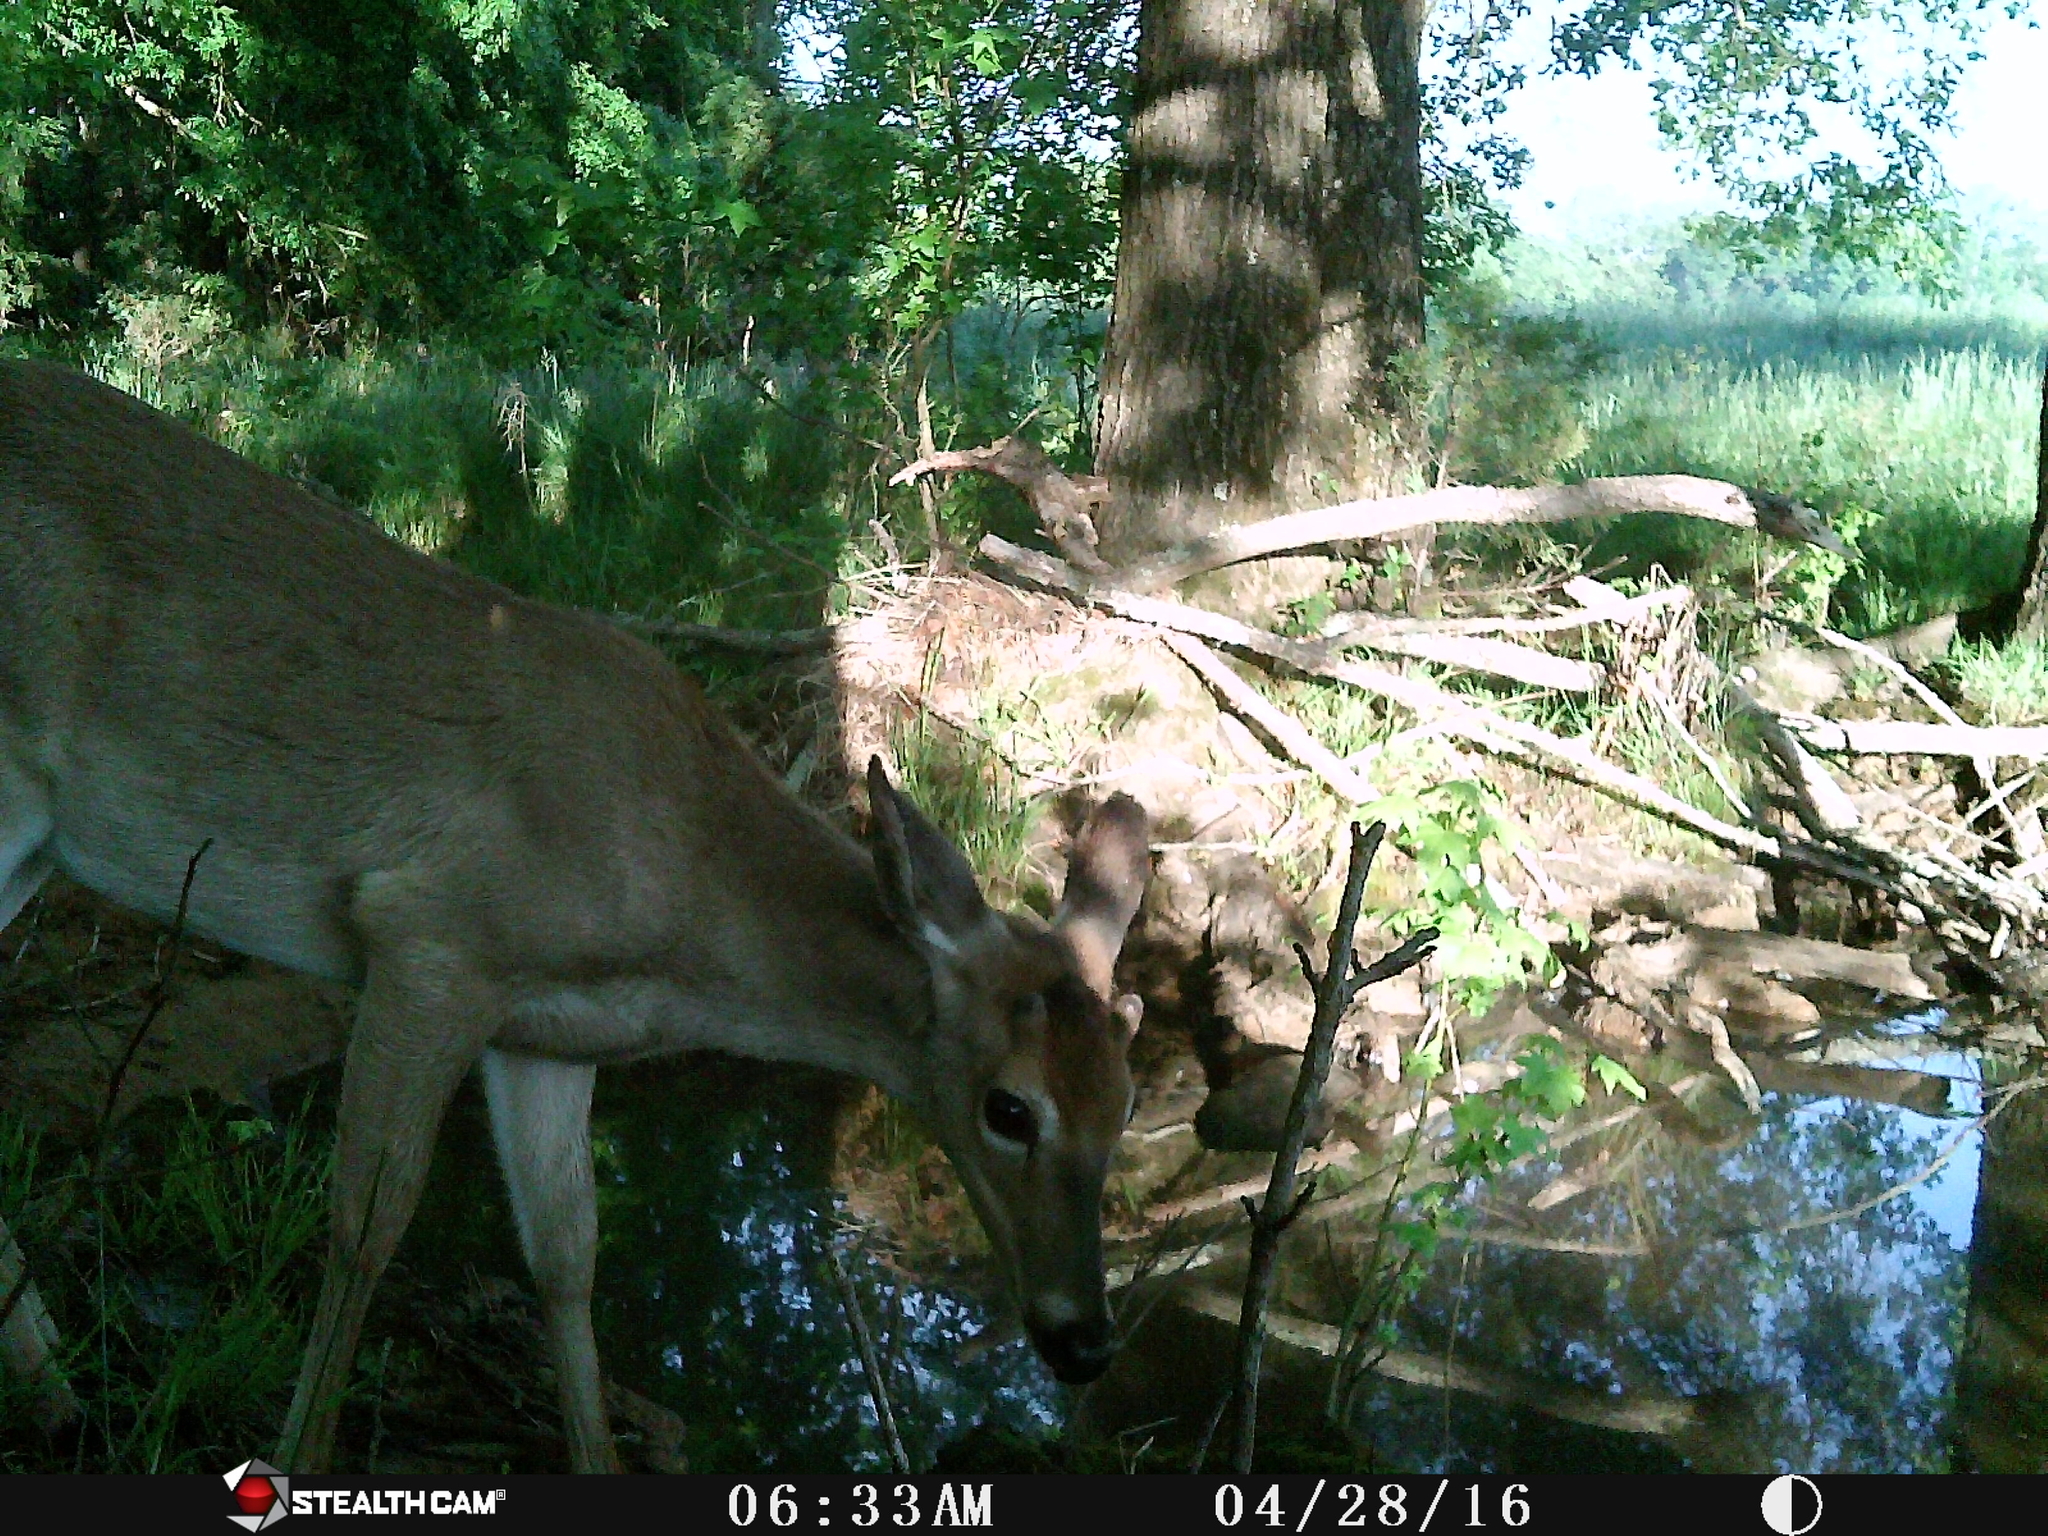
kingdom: Animalia
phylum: Chordata
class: Mammalia
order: Artiodactyla
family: Cervidae
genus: Odocoileus
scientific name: Odocoileus virginianus
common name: White-tailed deer
